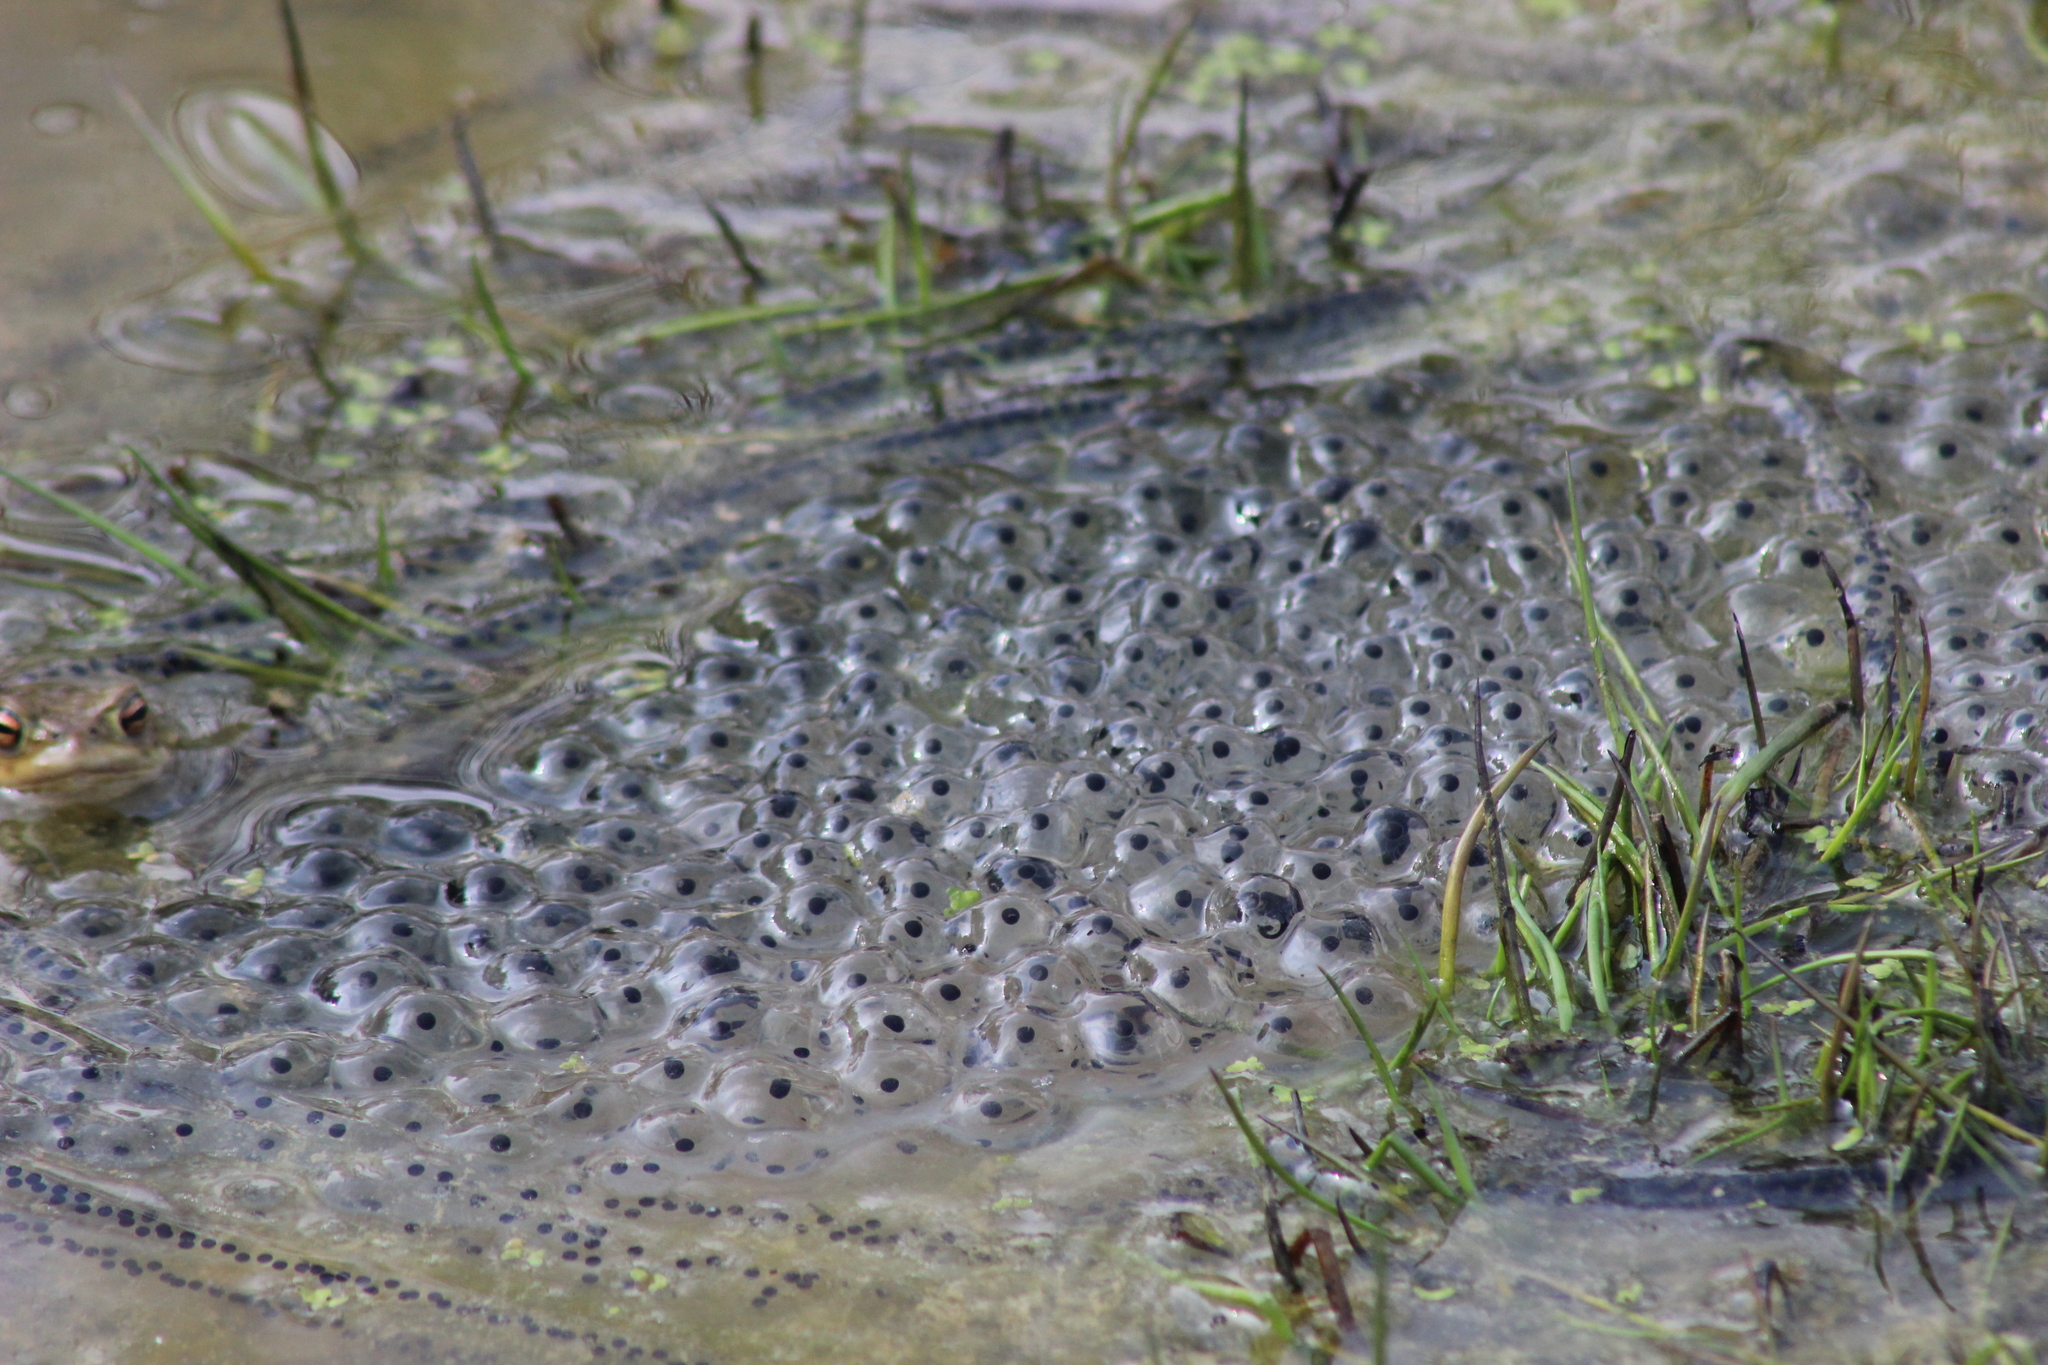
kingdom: Animalia
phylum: Chordata
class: Amphibia
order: Anura
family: Ranidae
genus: Rana
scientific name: Rana temporaria
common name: Common frog
